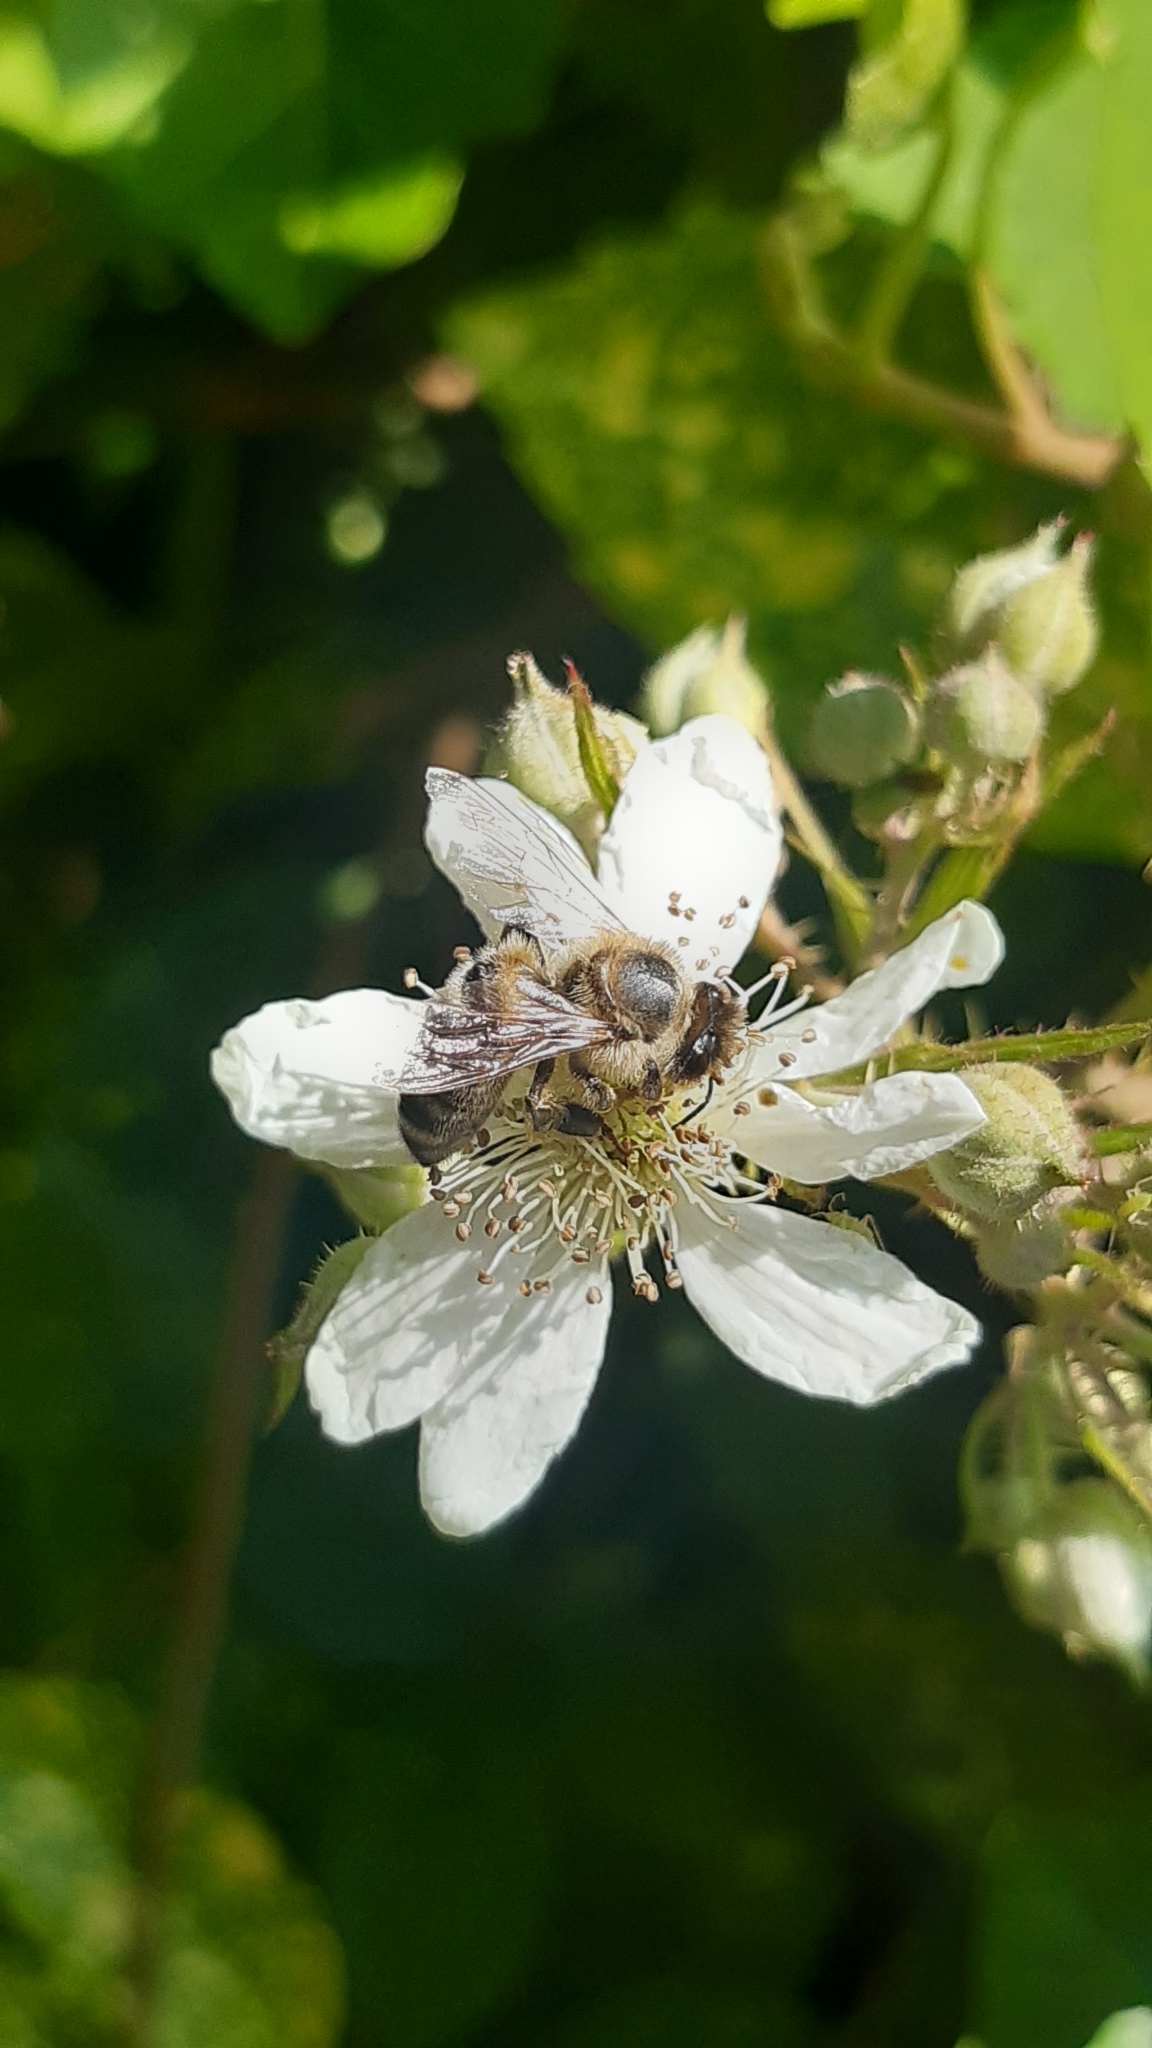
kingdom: Animalia
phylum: Arthropoda
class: Insecta
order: Hymenoptera
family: Apidae
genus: Apis
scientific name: Apis mellifera
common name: Honey bee
